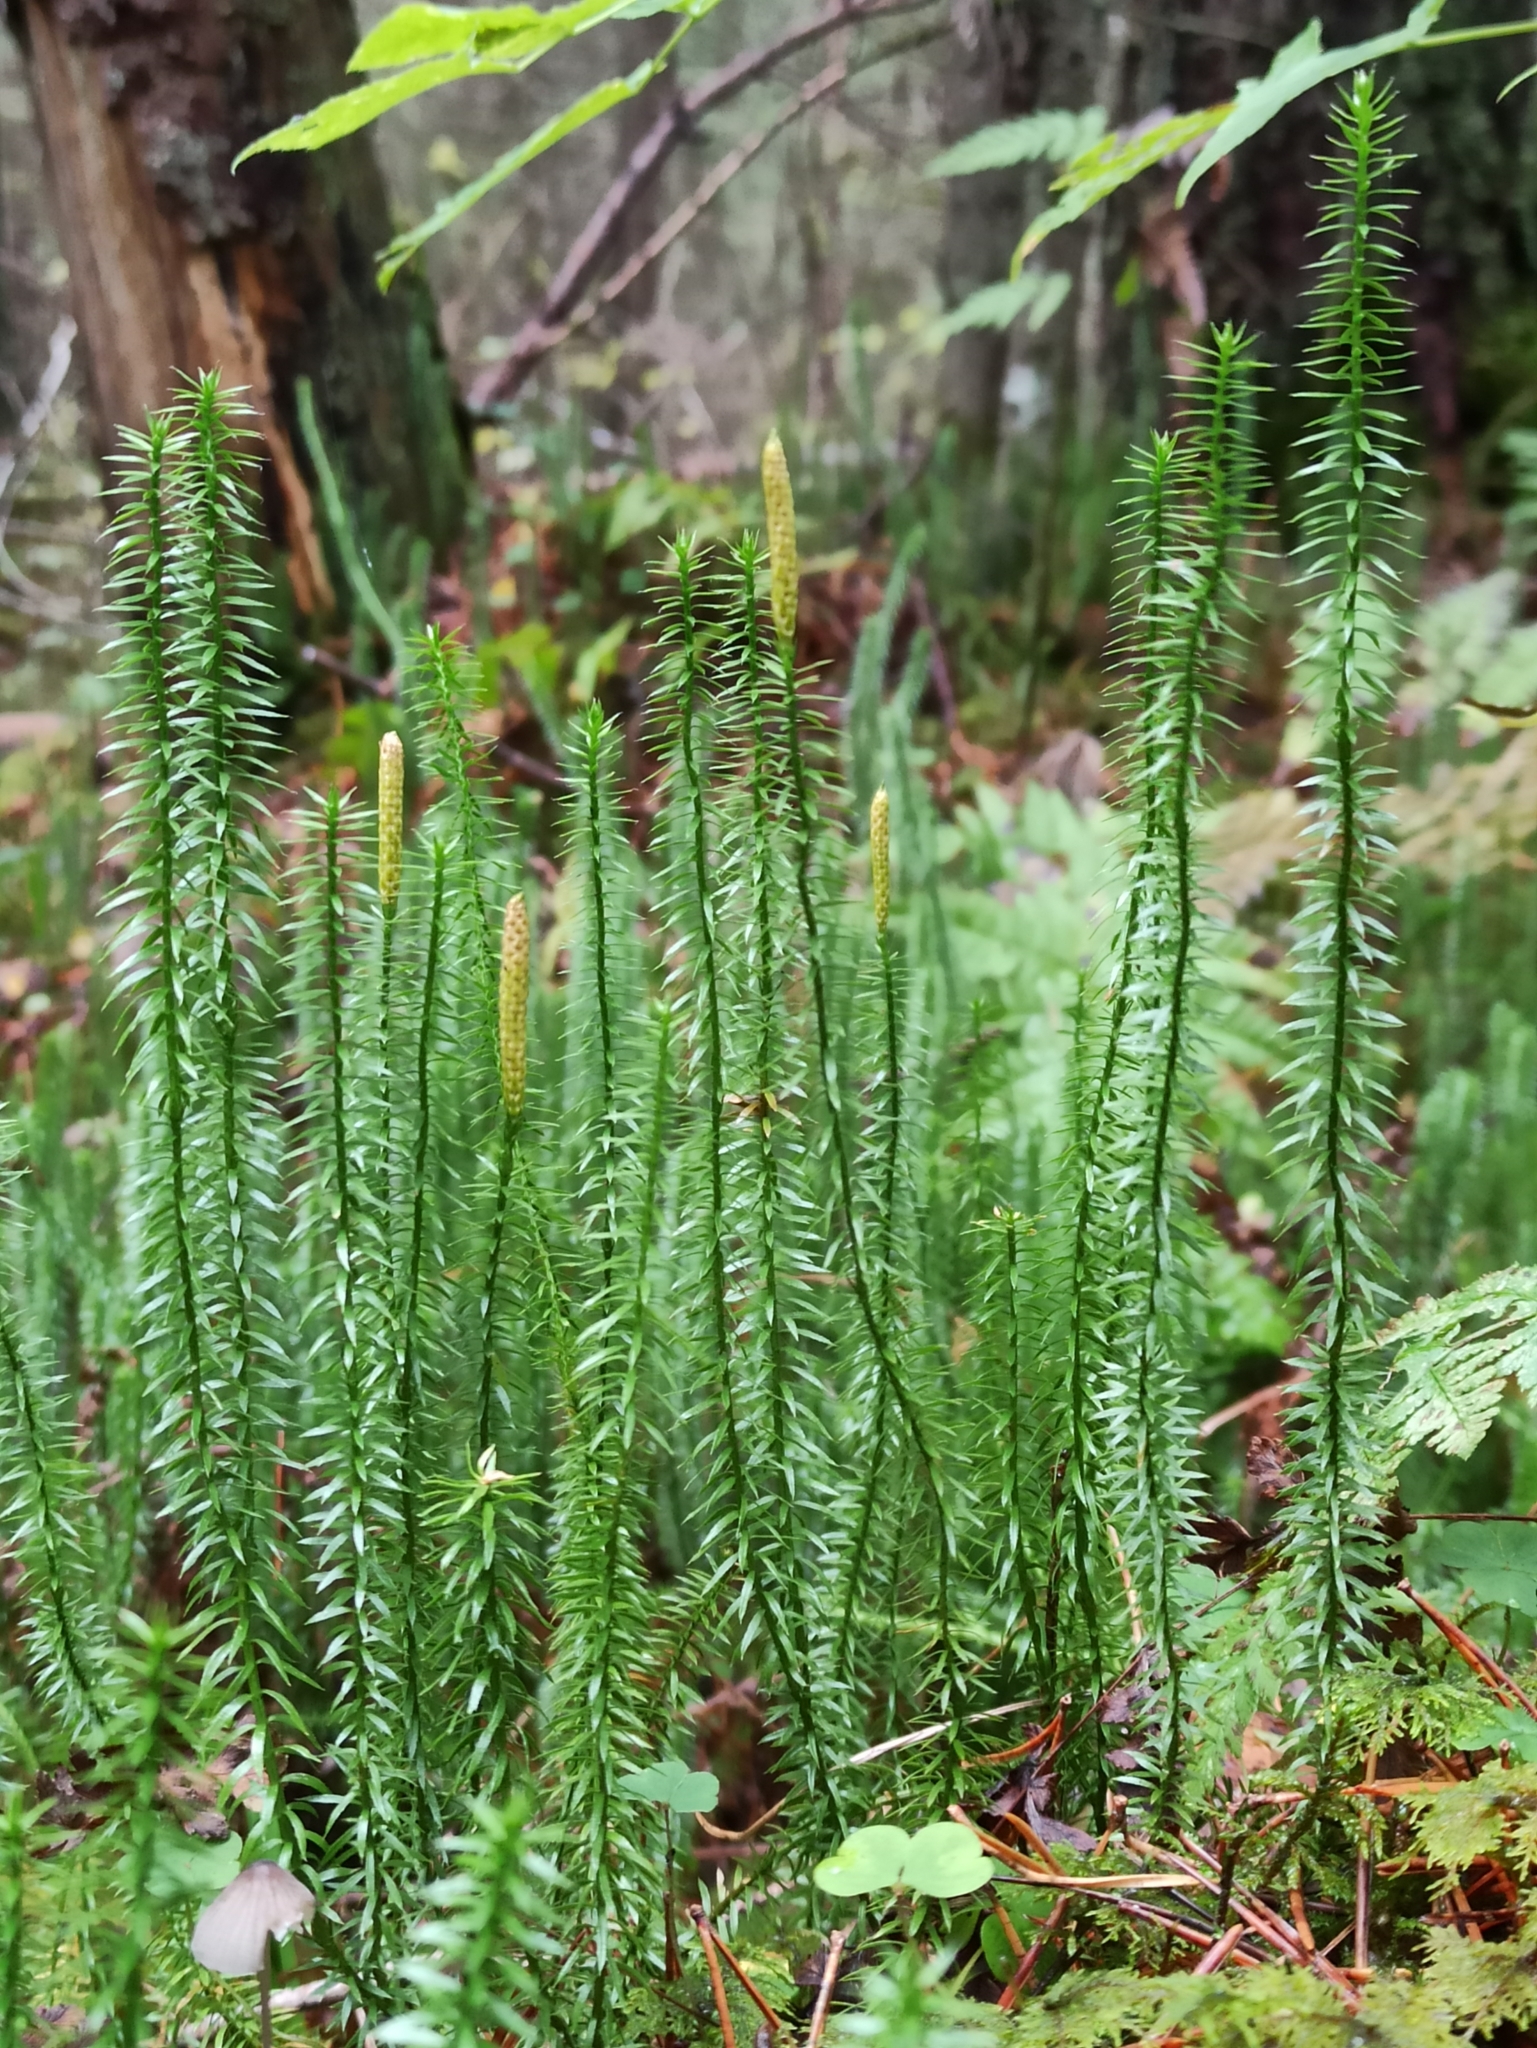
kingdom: Plantae
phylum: Tracheophyta
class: Lycopodiopsida
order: Lycopodiales
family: Lycopodiaceae
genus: Spinulum
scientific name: Spinulum annotinum
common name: Interrupted club-moss
